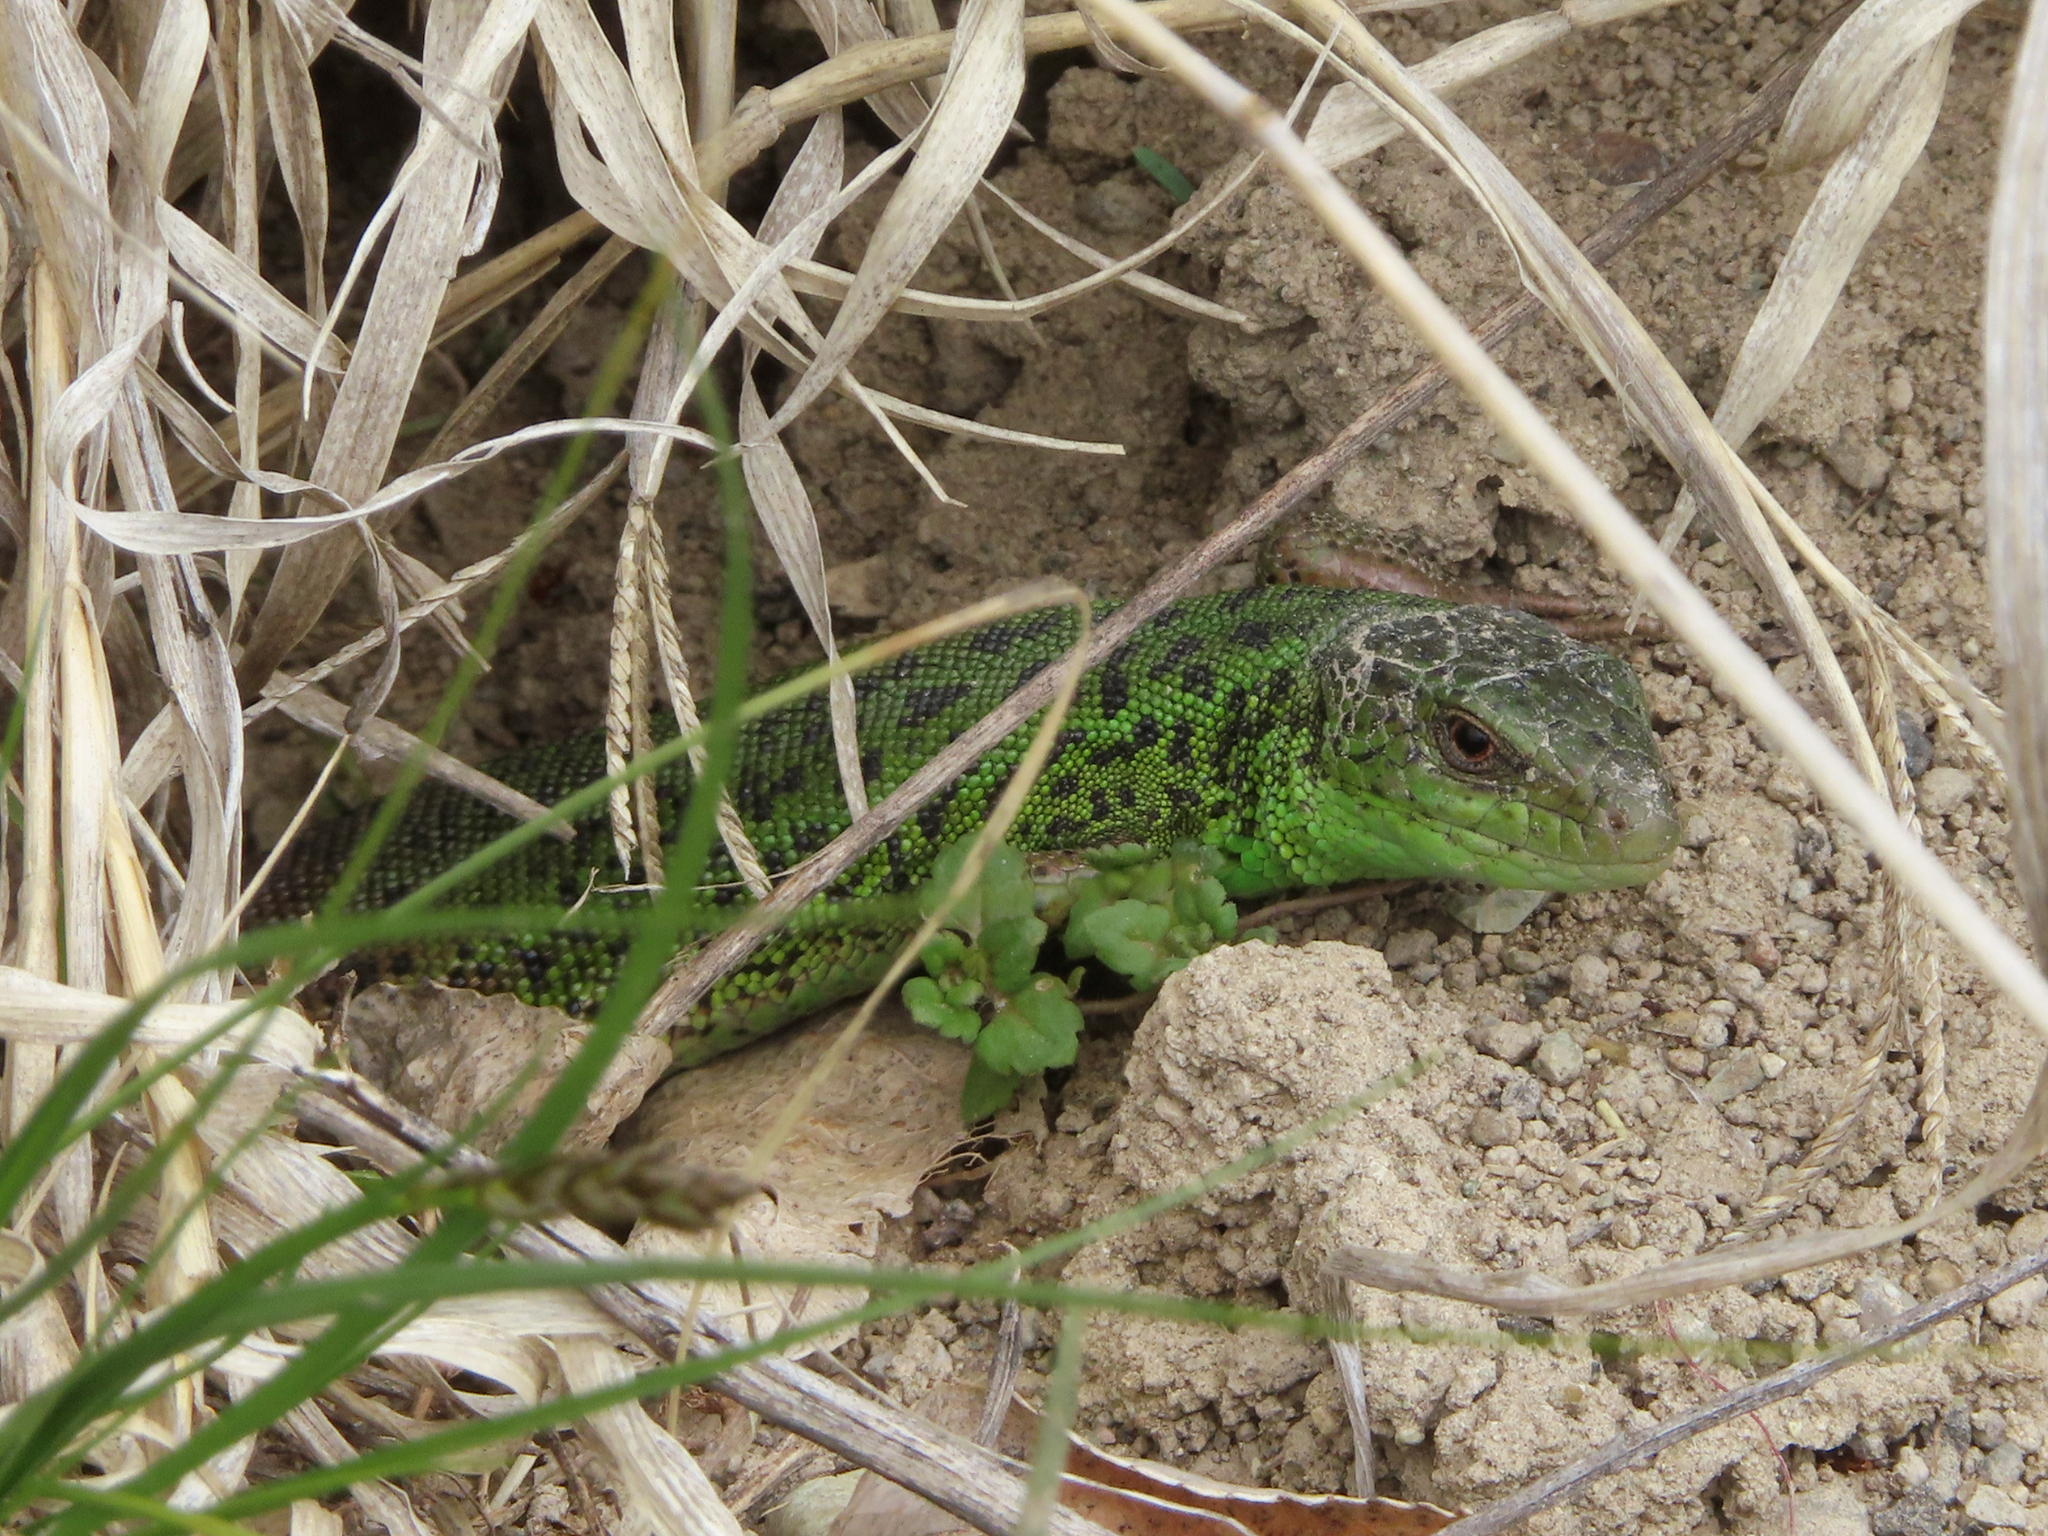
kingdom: Animalia
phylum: Chordata
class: Squamata
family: Lacertidae
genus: Lacerta
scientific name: Lacerta strigata
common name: Caspian green lizard
